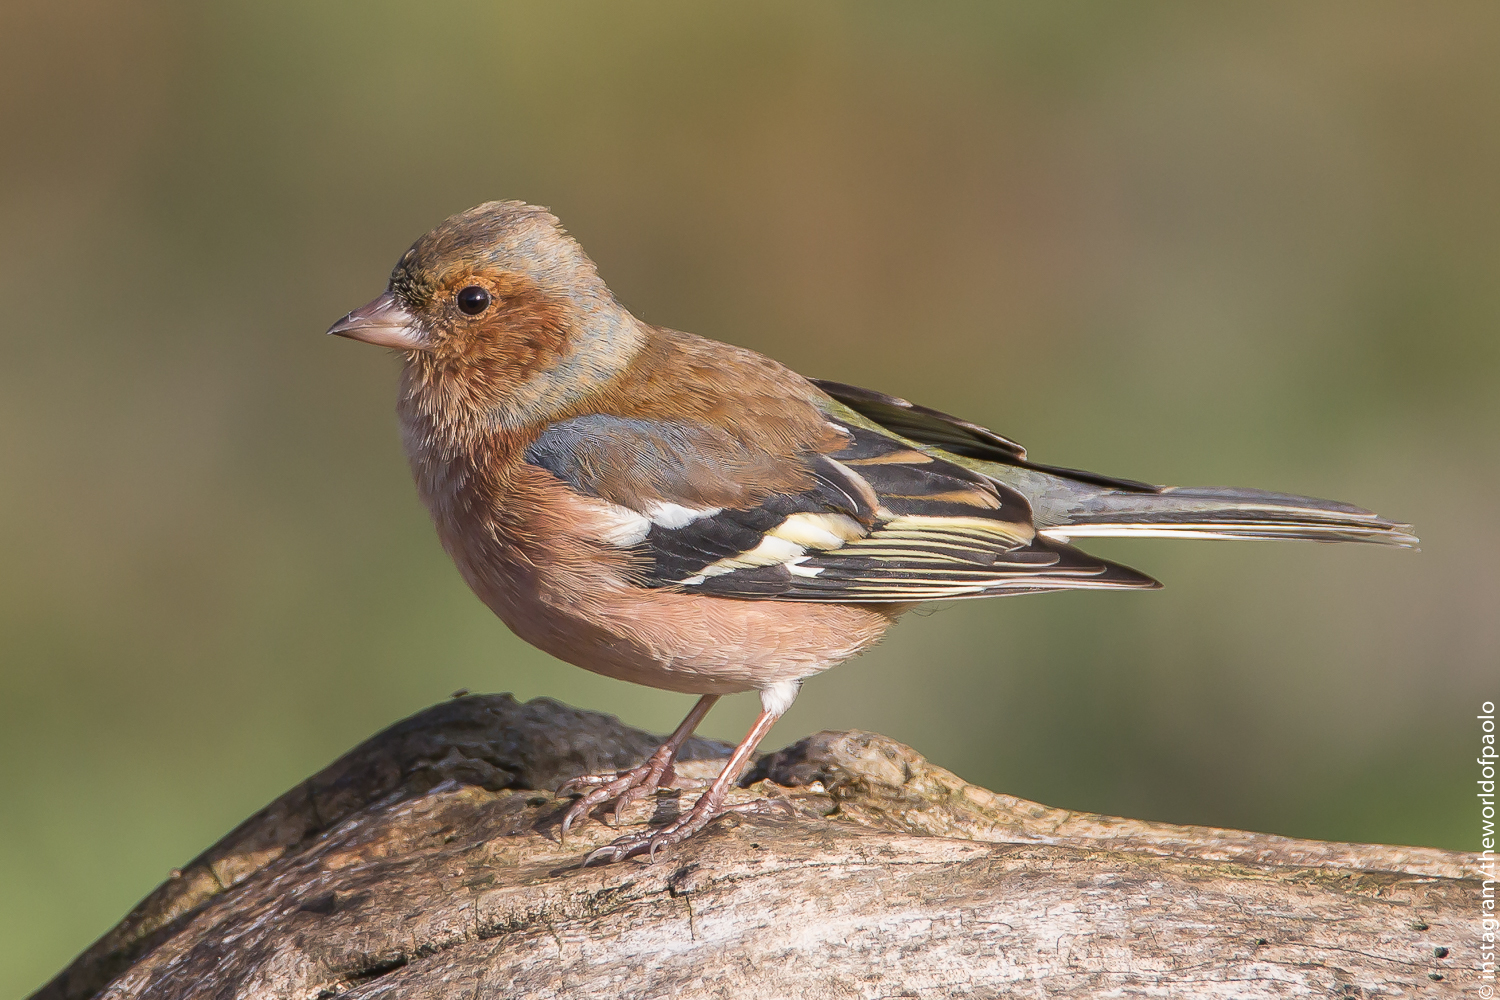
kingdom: Animalia
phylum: Chordata
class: Aves
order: Passeriformes
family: Fringillidae
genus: Fringilla
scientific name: Fringilla coelebs
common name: Common chaffinch
